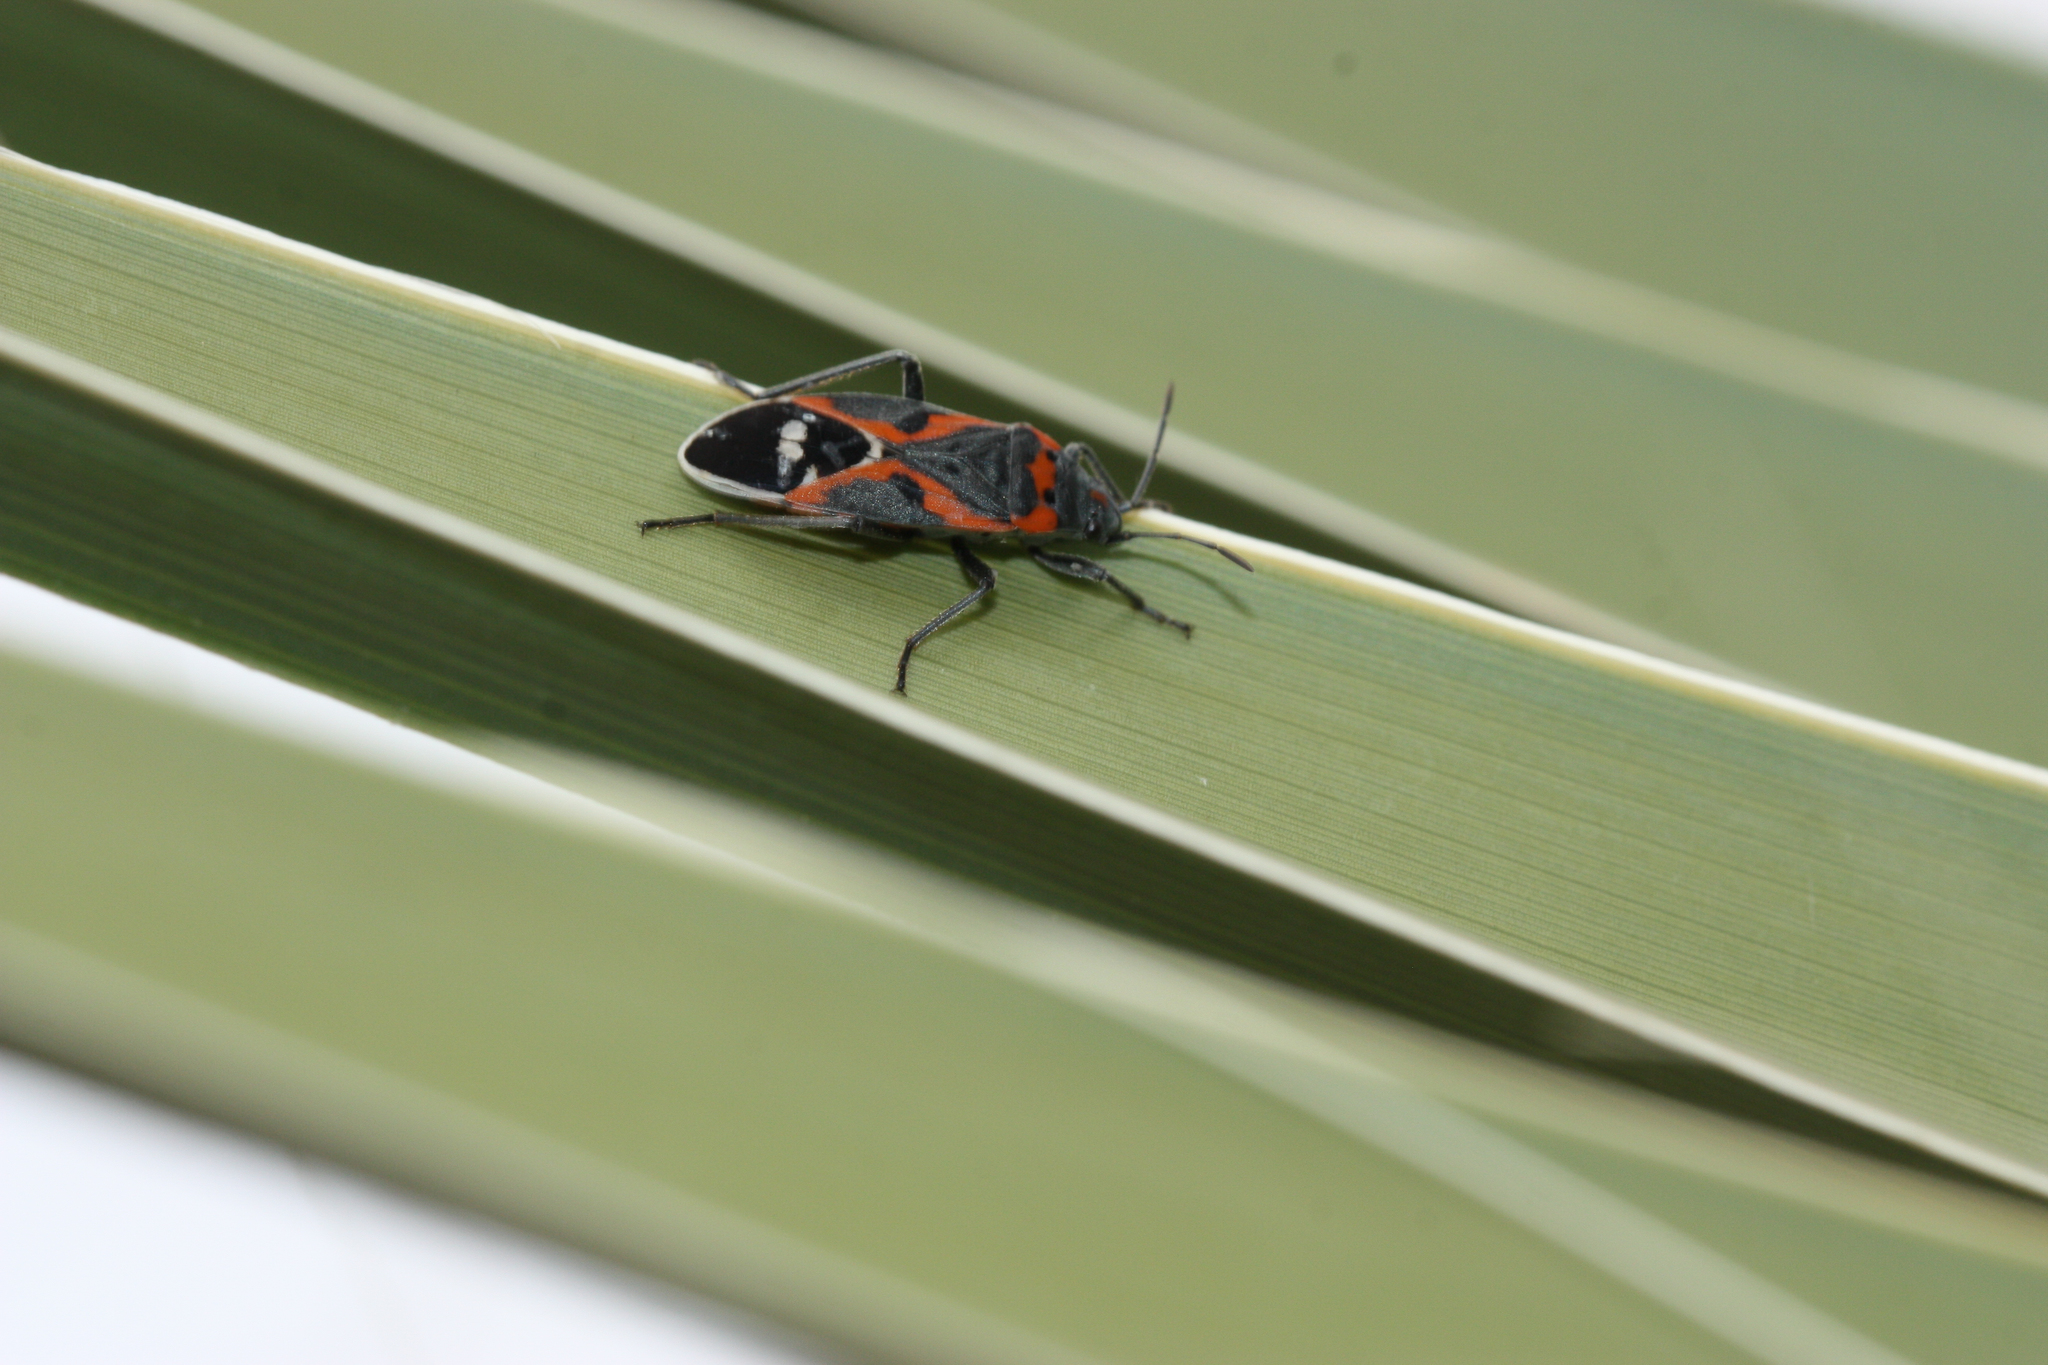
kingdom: Animalia
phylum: Arthropoda
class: Insecta
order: Hemiptera
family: Lygaeidae
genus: Lygaeus
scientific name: Lygaeus kalmii
